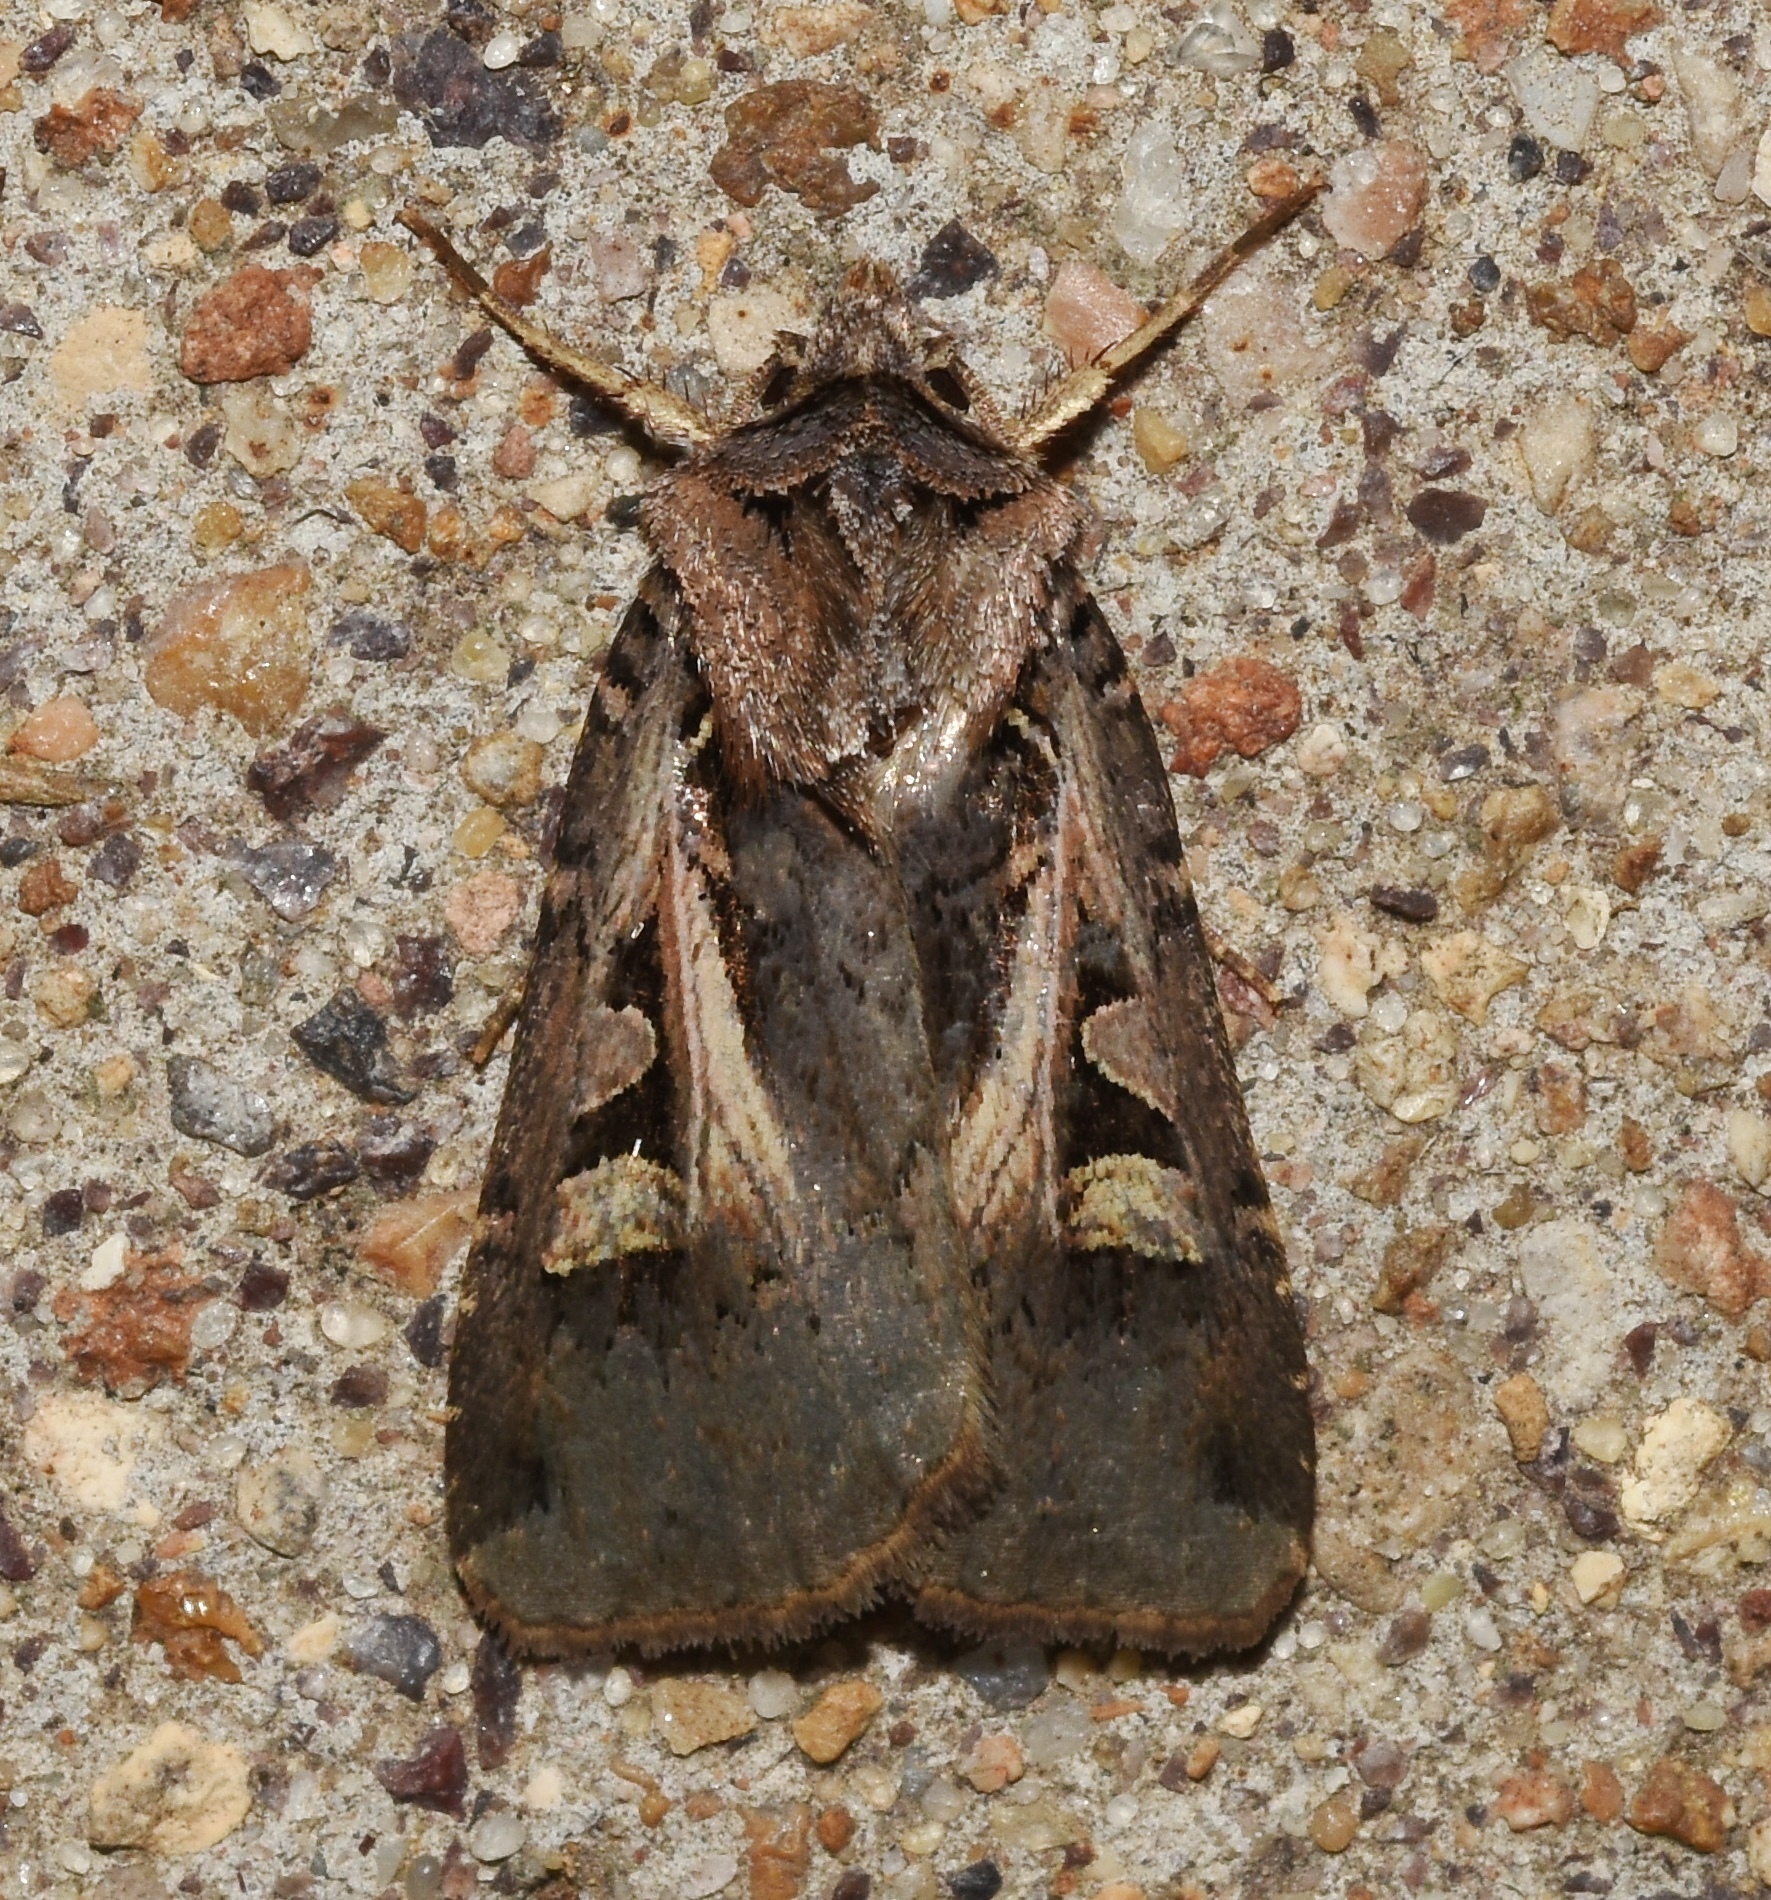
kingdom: Animalia
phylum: Arthropoda
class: Insecta
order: Lepidoptera
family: Noctuidae
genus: Feltia
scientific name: Feltia herilis
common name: Master's dart
